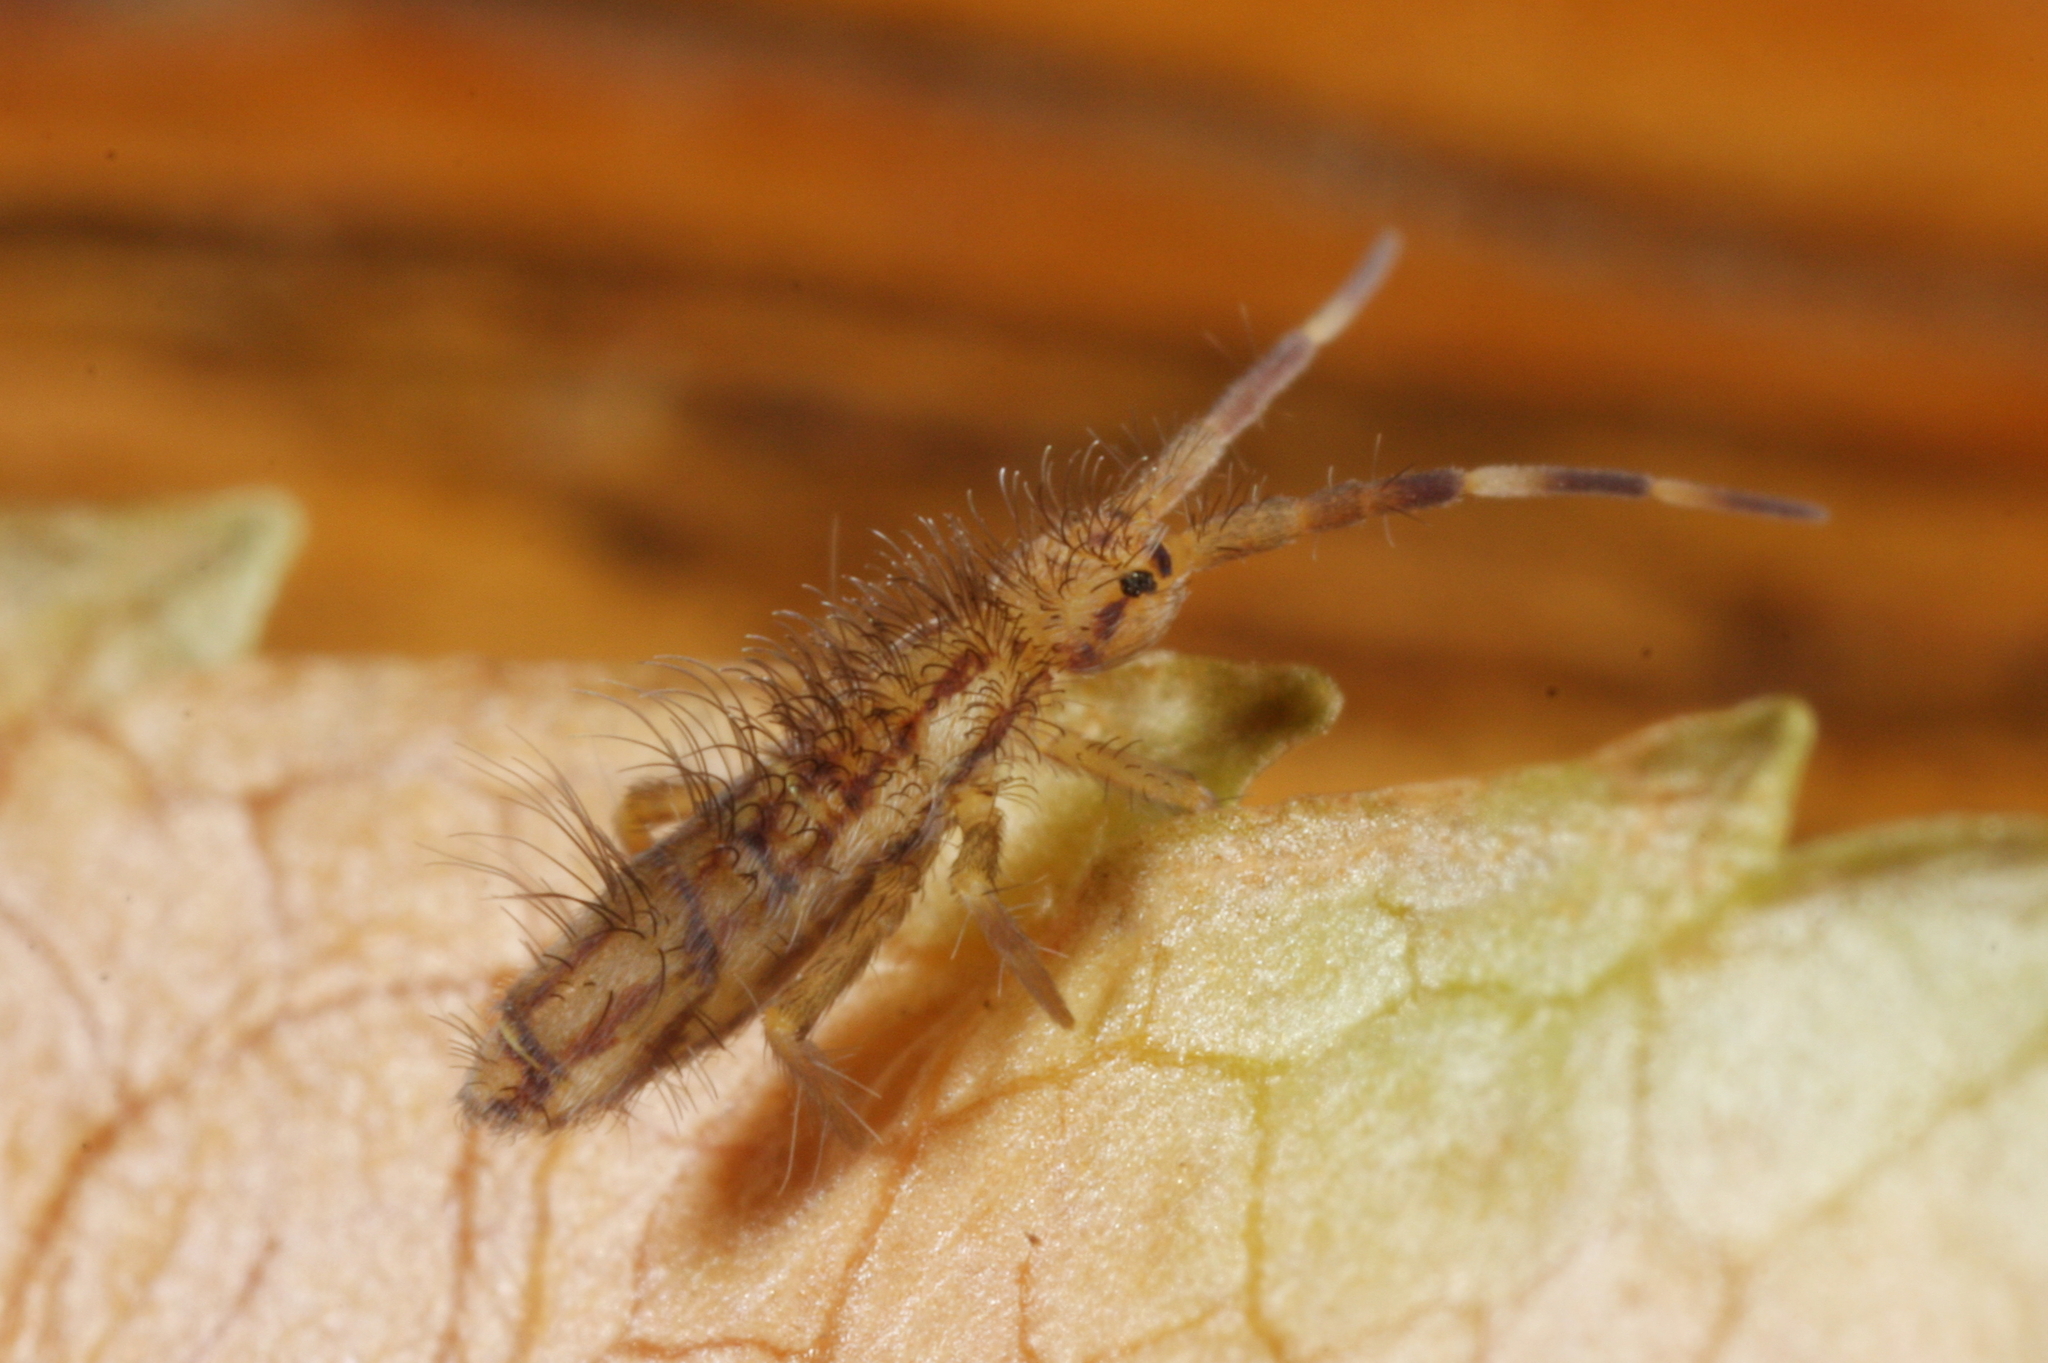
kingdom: Animalia
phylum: Arthropoda
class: Collembola
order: Entomobryomorpha
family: Entomobryidae
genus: Entomobrya
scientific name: Entomobrya nivalis
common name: Cosmopolitan springtail
